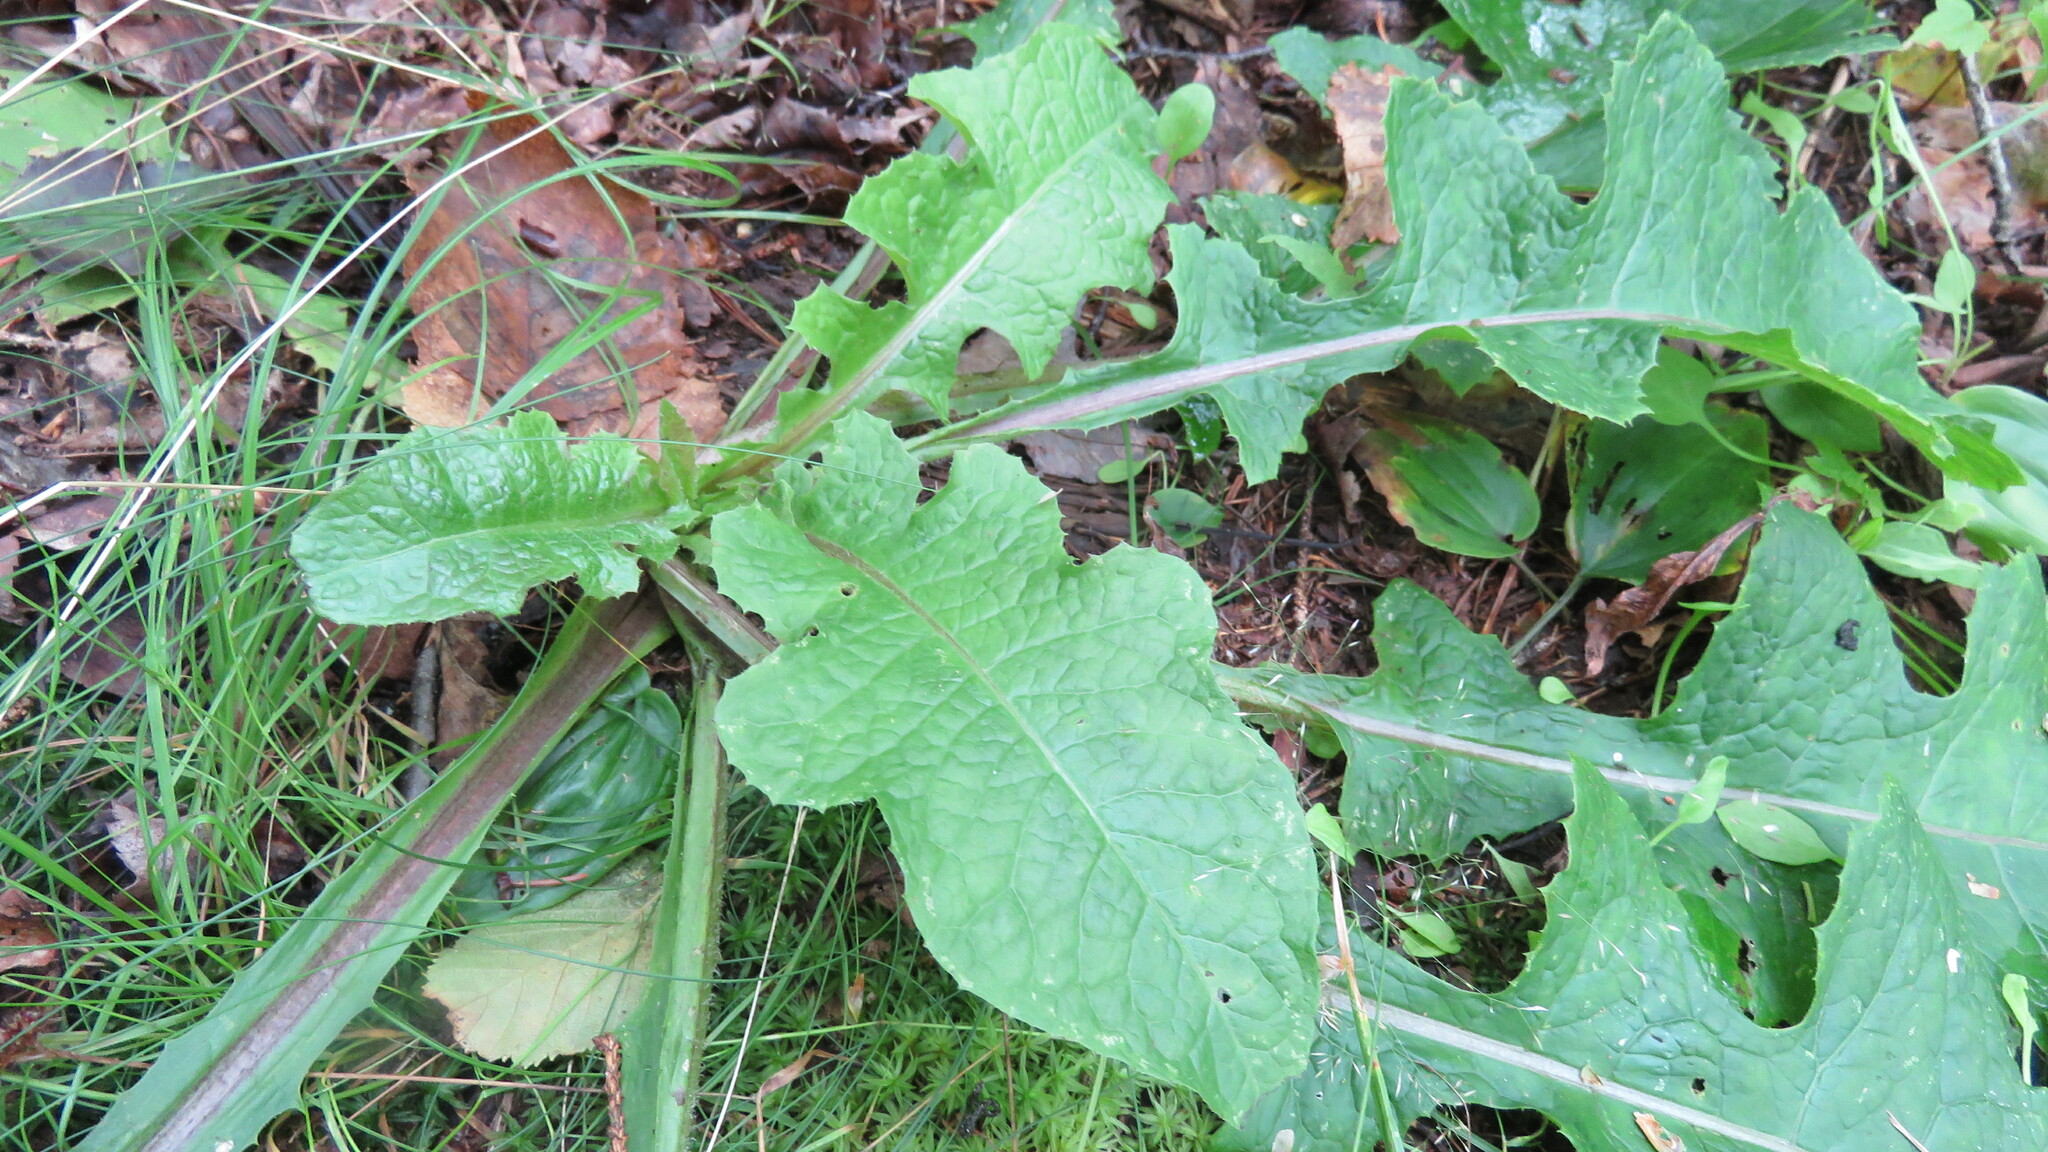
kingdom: Plantae
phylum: Tracheophyta
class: Magnoliopsida
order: Asterales
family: Asteraceae
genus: Lactuca
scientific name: Lactuca biennis
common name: Blue wood lettuce
